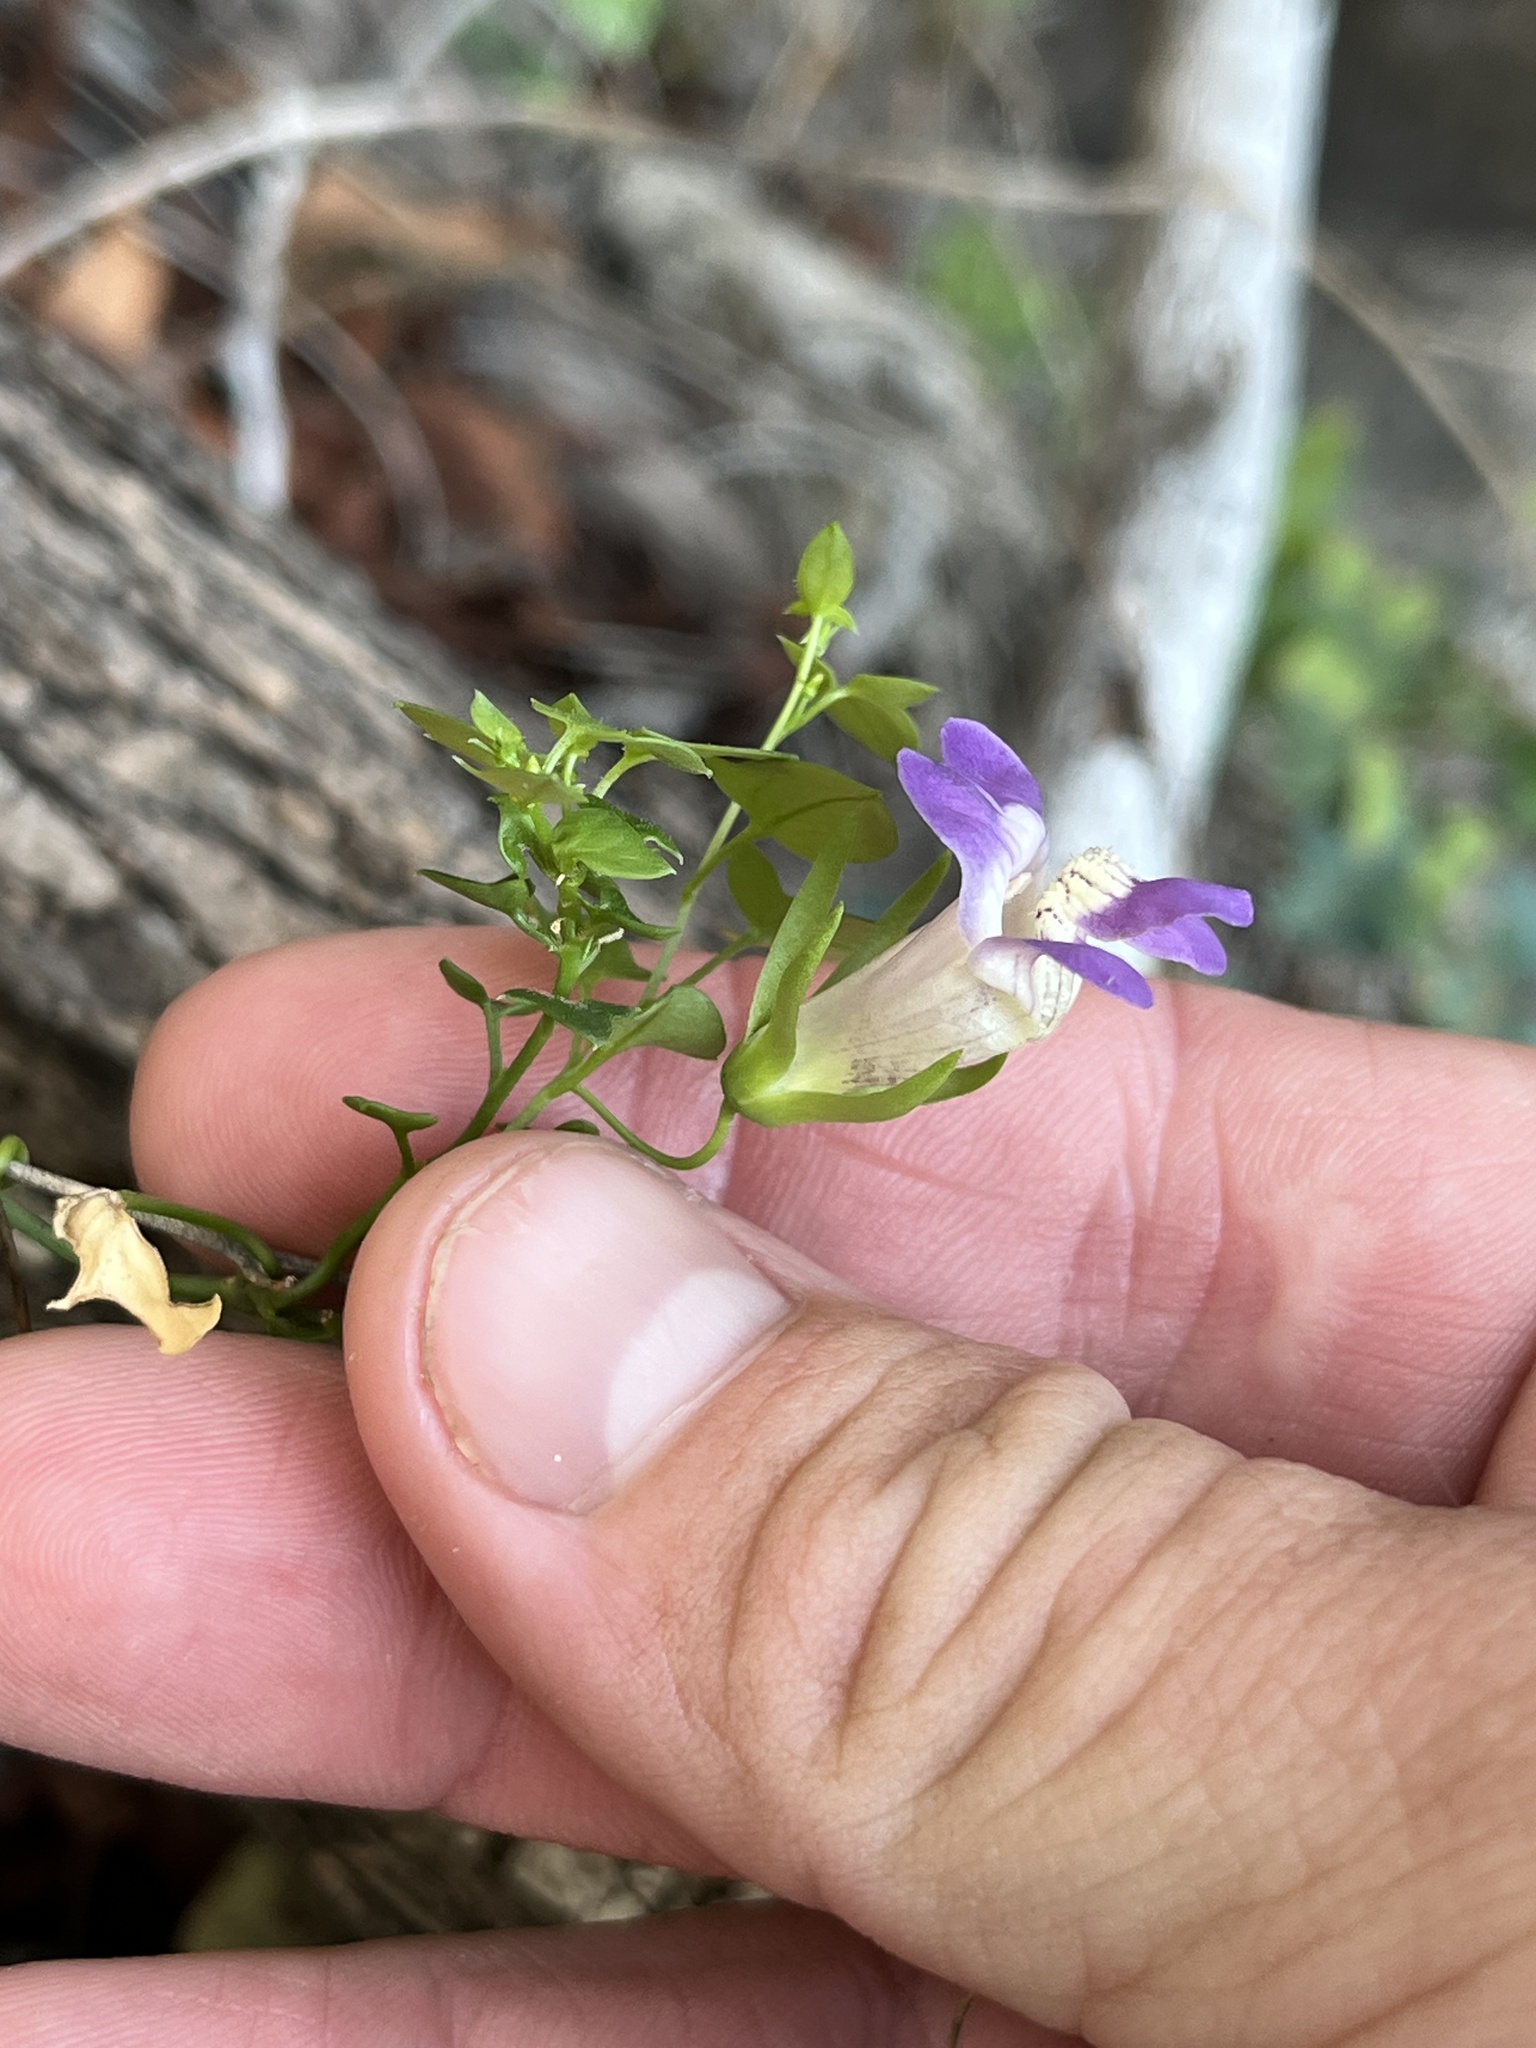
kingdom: Plantae
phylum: Tracheophyta
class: Magnoliopsida
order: Lamiales
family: Plantaginaceae
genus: Maurandella
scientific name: Maurandella antirrhiniflora
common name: Violet twining-snapdragon
